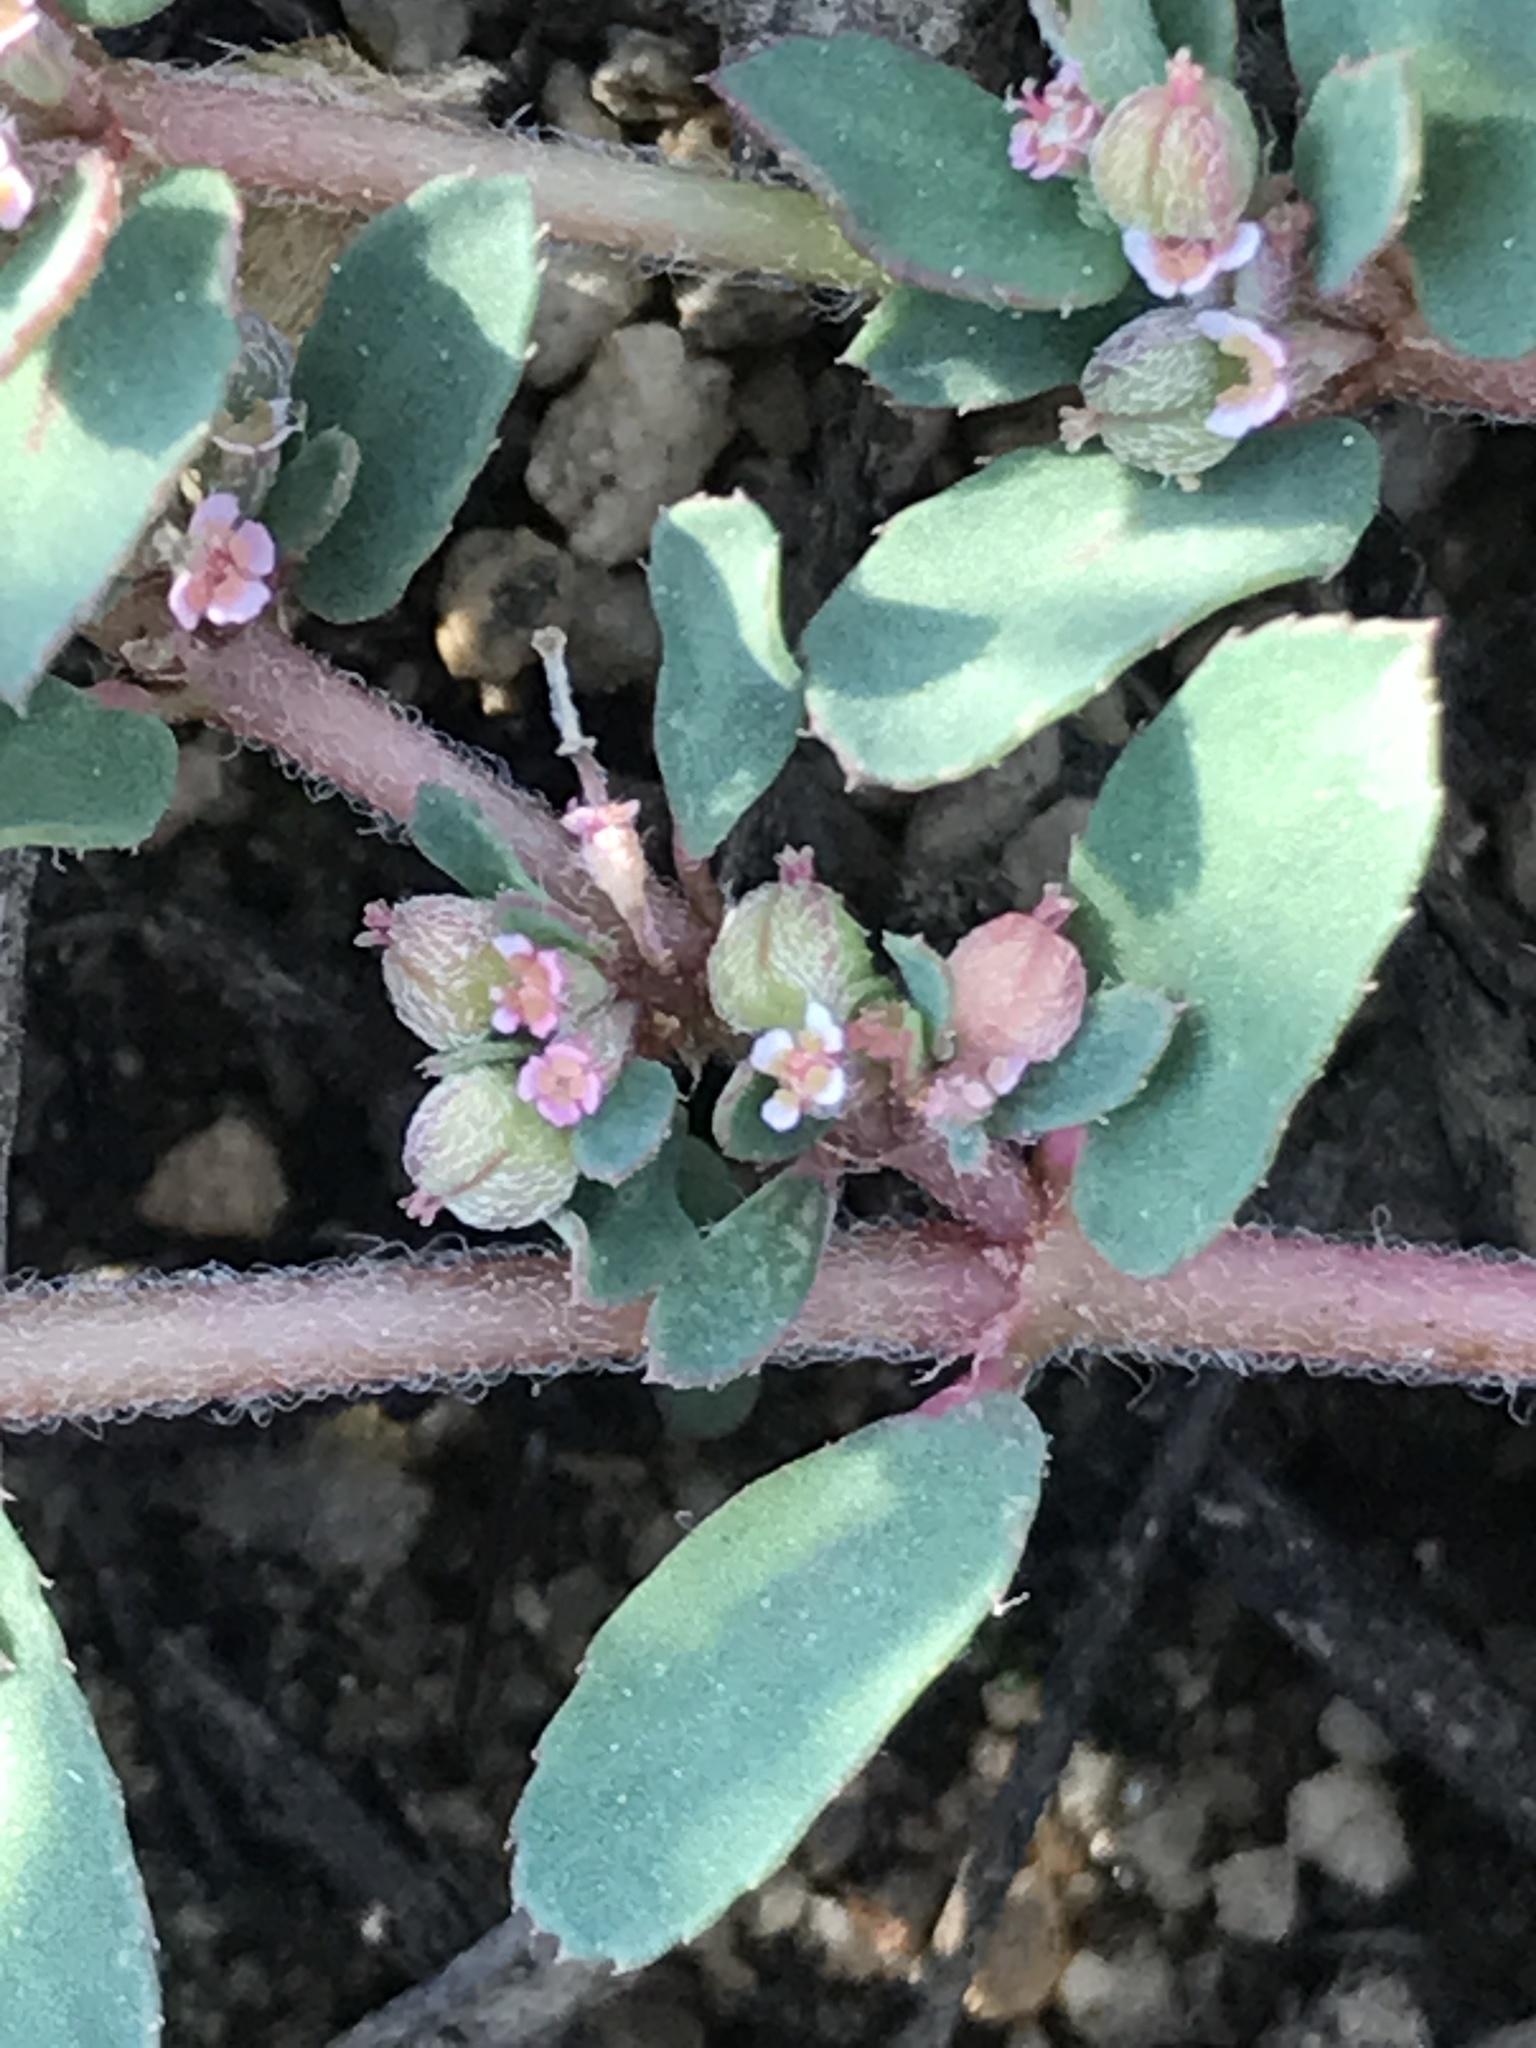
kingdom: Plantae
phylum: Tracheophyta
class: Magnoliopsida
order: Malpighiales
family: Euphorbiaceae
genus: Euphorbia
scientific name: Euphorbia maculata
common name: Spotted spurge
